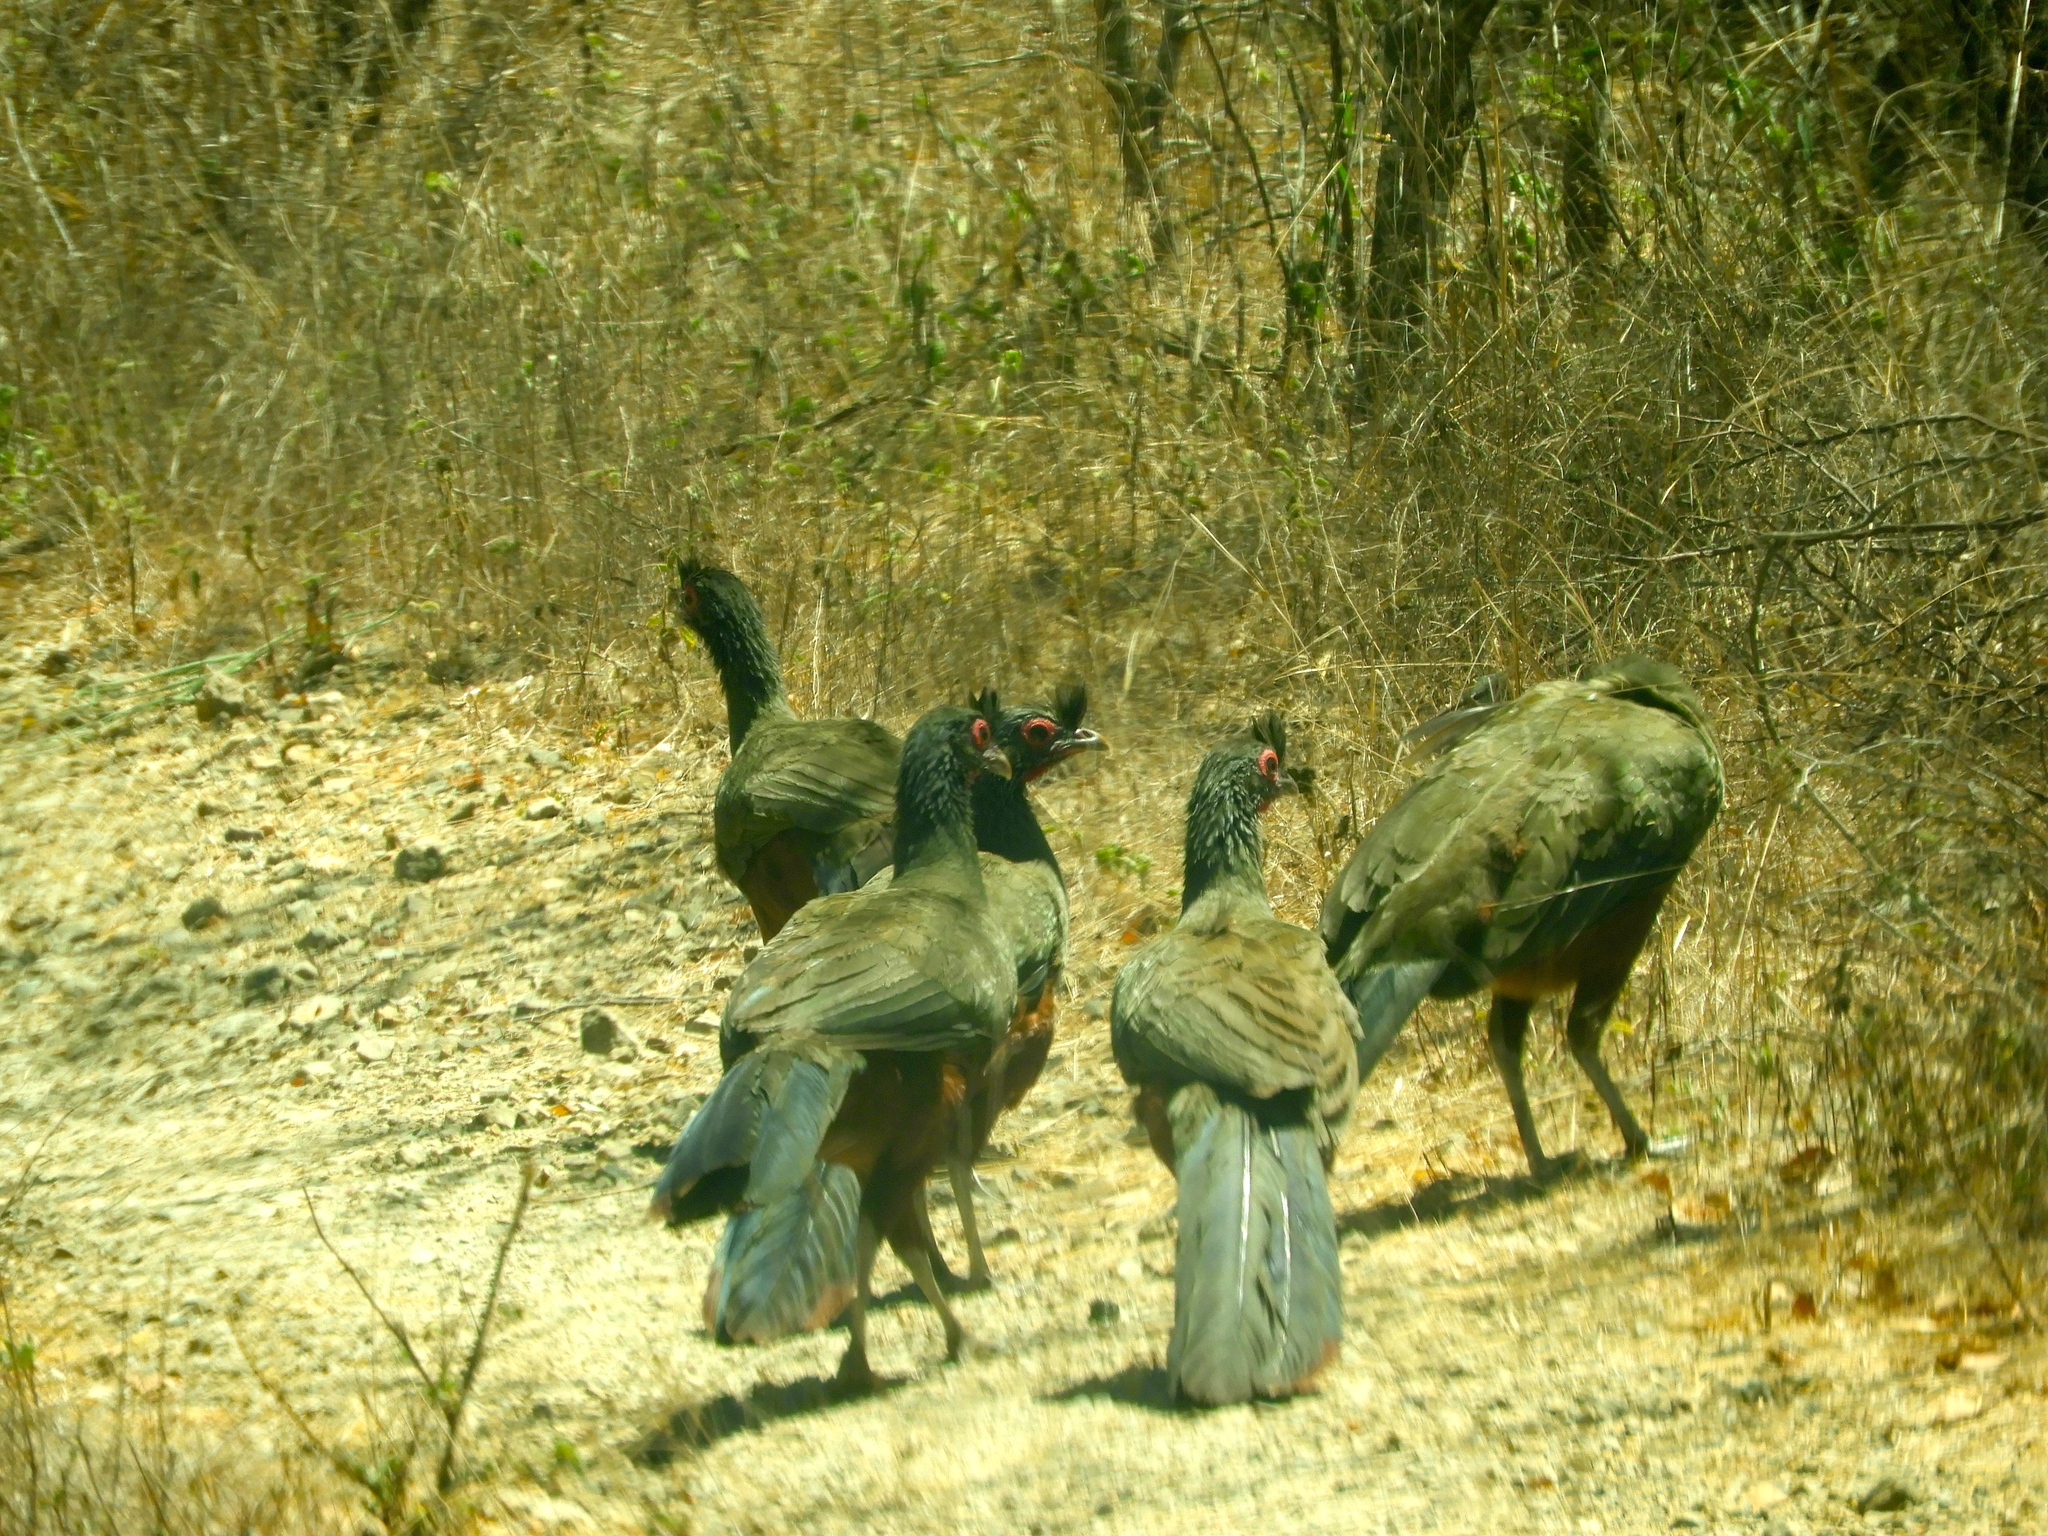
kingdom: Animalia
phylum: Chordata
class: Aves
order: Galliformes
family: Cracidae
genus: Ortalis
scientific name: Ortalis wagleri
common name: Rufous-bellied chachalaca
